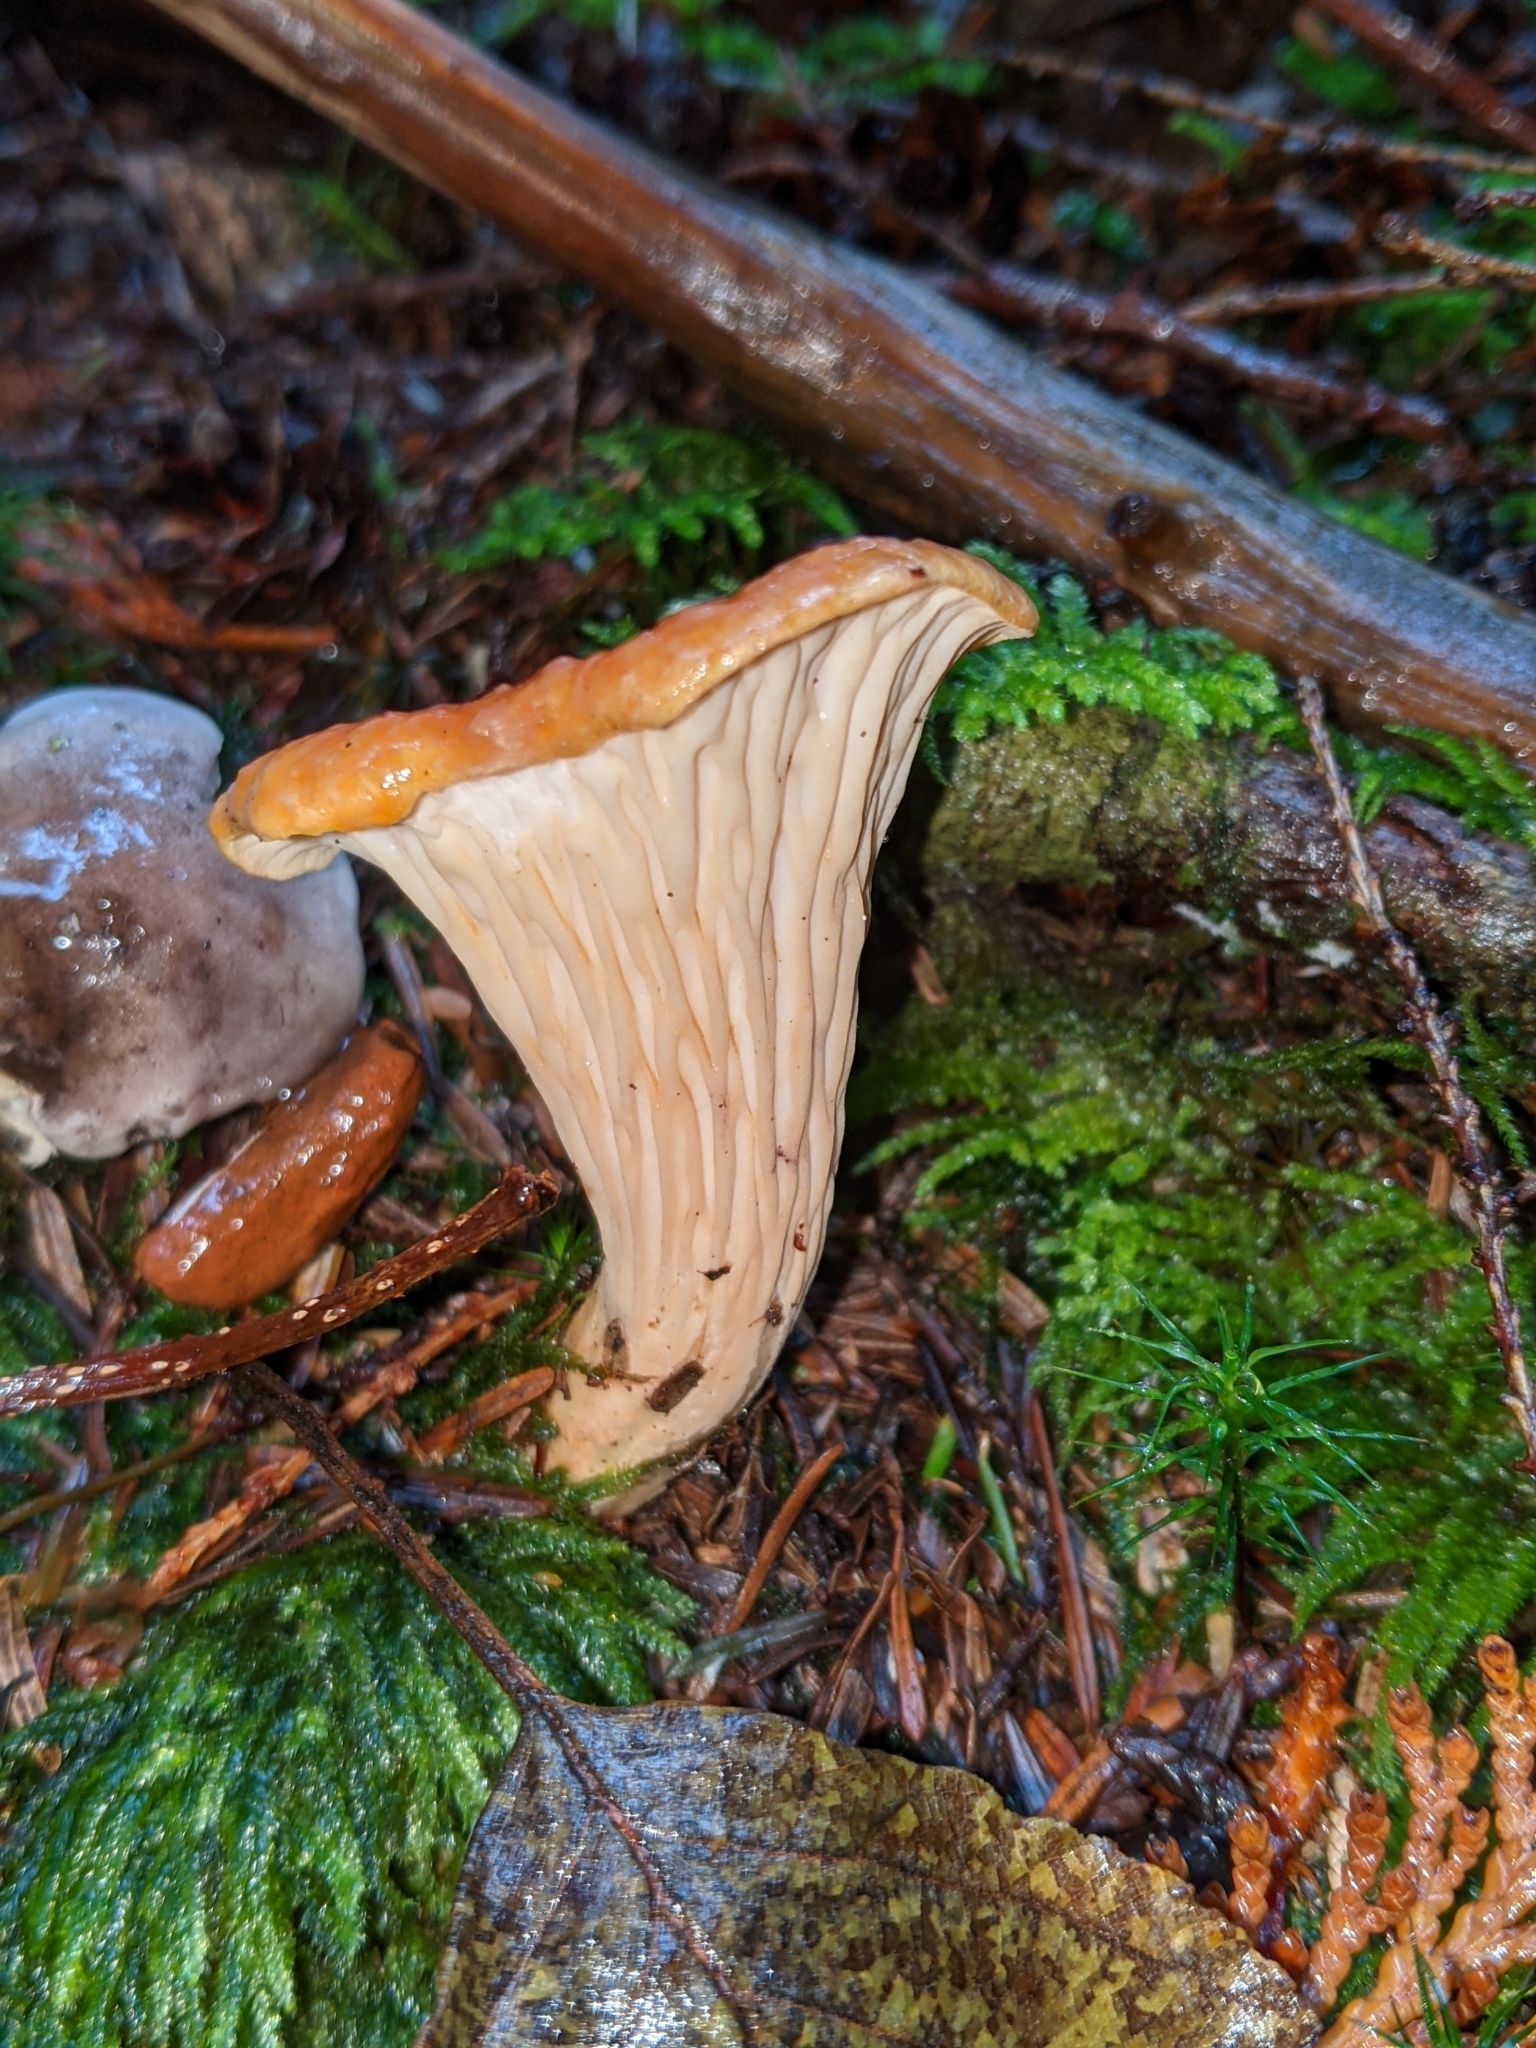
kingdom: Fungi
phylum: Basidiomycota
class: Agaricomycetes
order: Gomphales
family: Gomphaceae
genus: Turbinellus
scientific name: Turbinellus floccosus
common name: Scaly chanterelle
